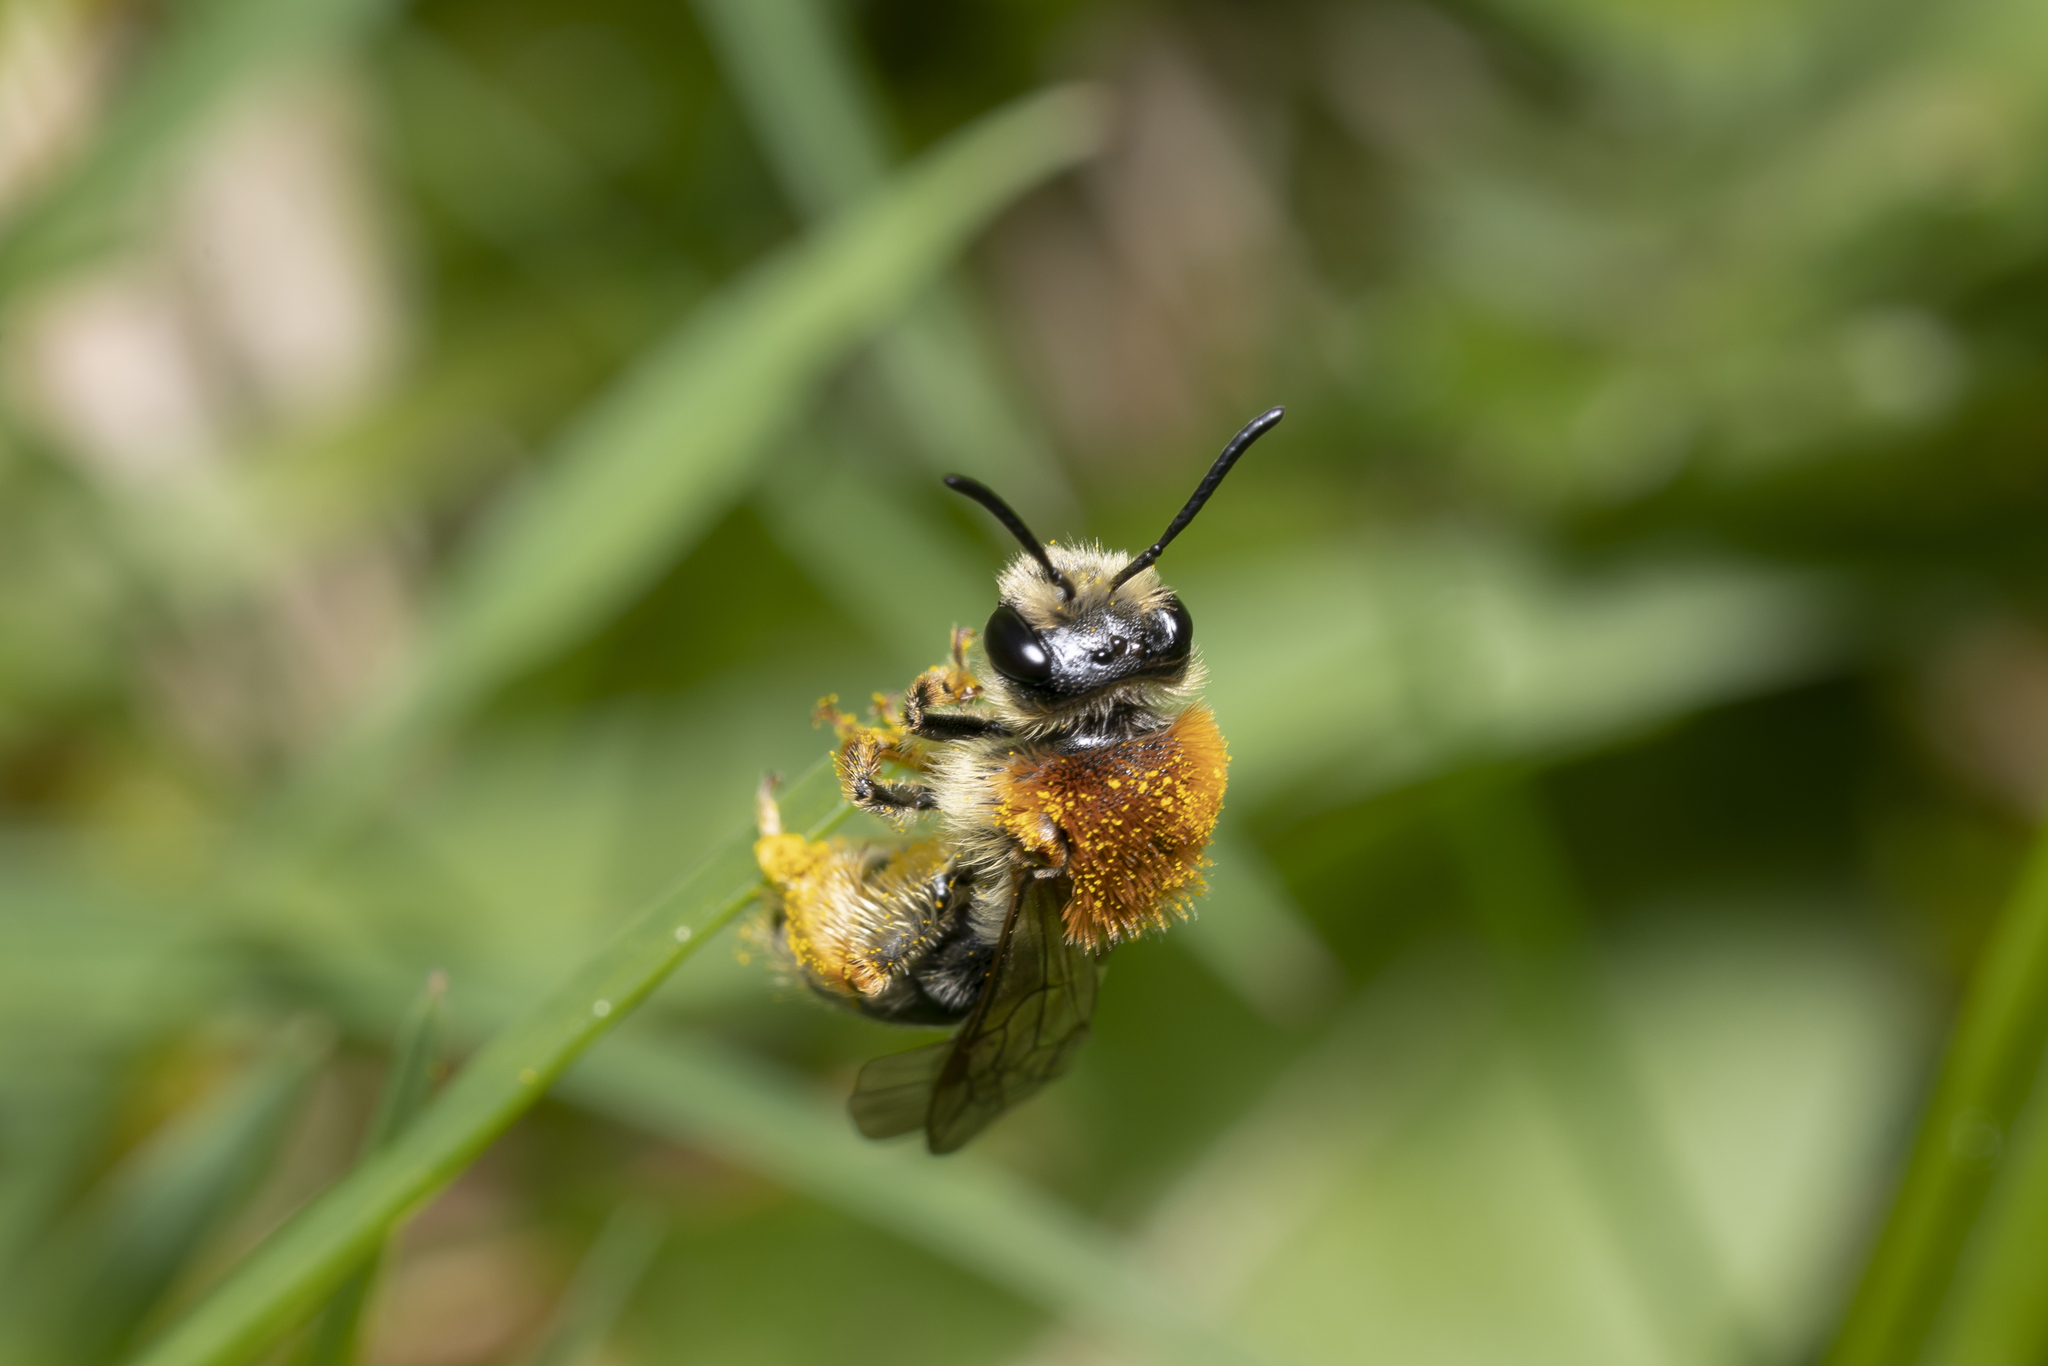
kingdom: Animalia
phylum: Arthropoda
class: Insecta
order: Hymenoptera
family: Andrenidae
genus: Andrena
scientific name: Andrena haemorrhoa
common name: Early mining bee
